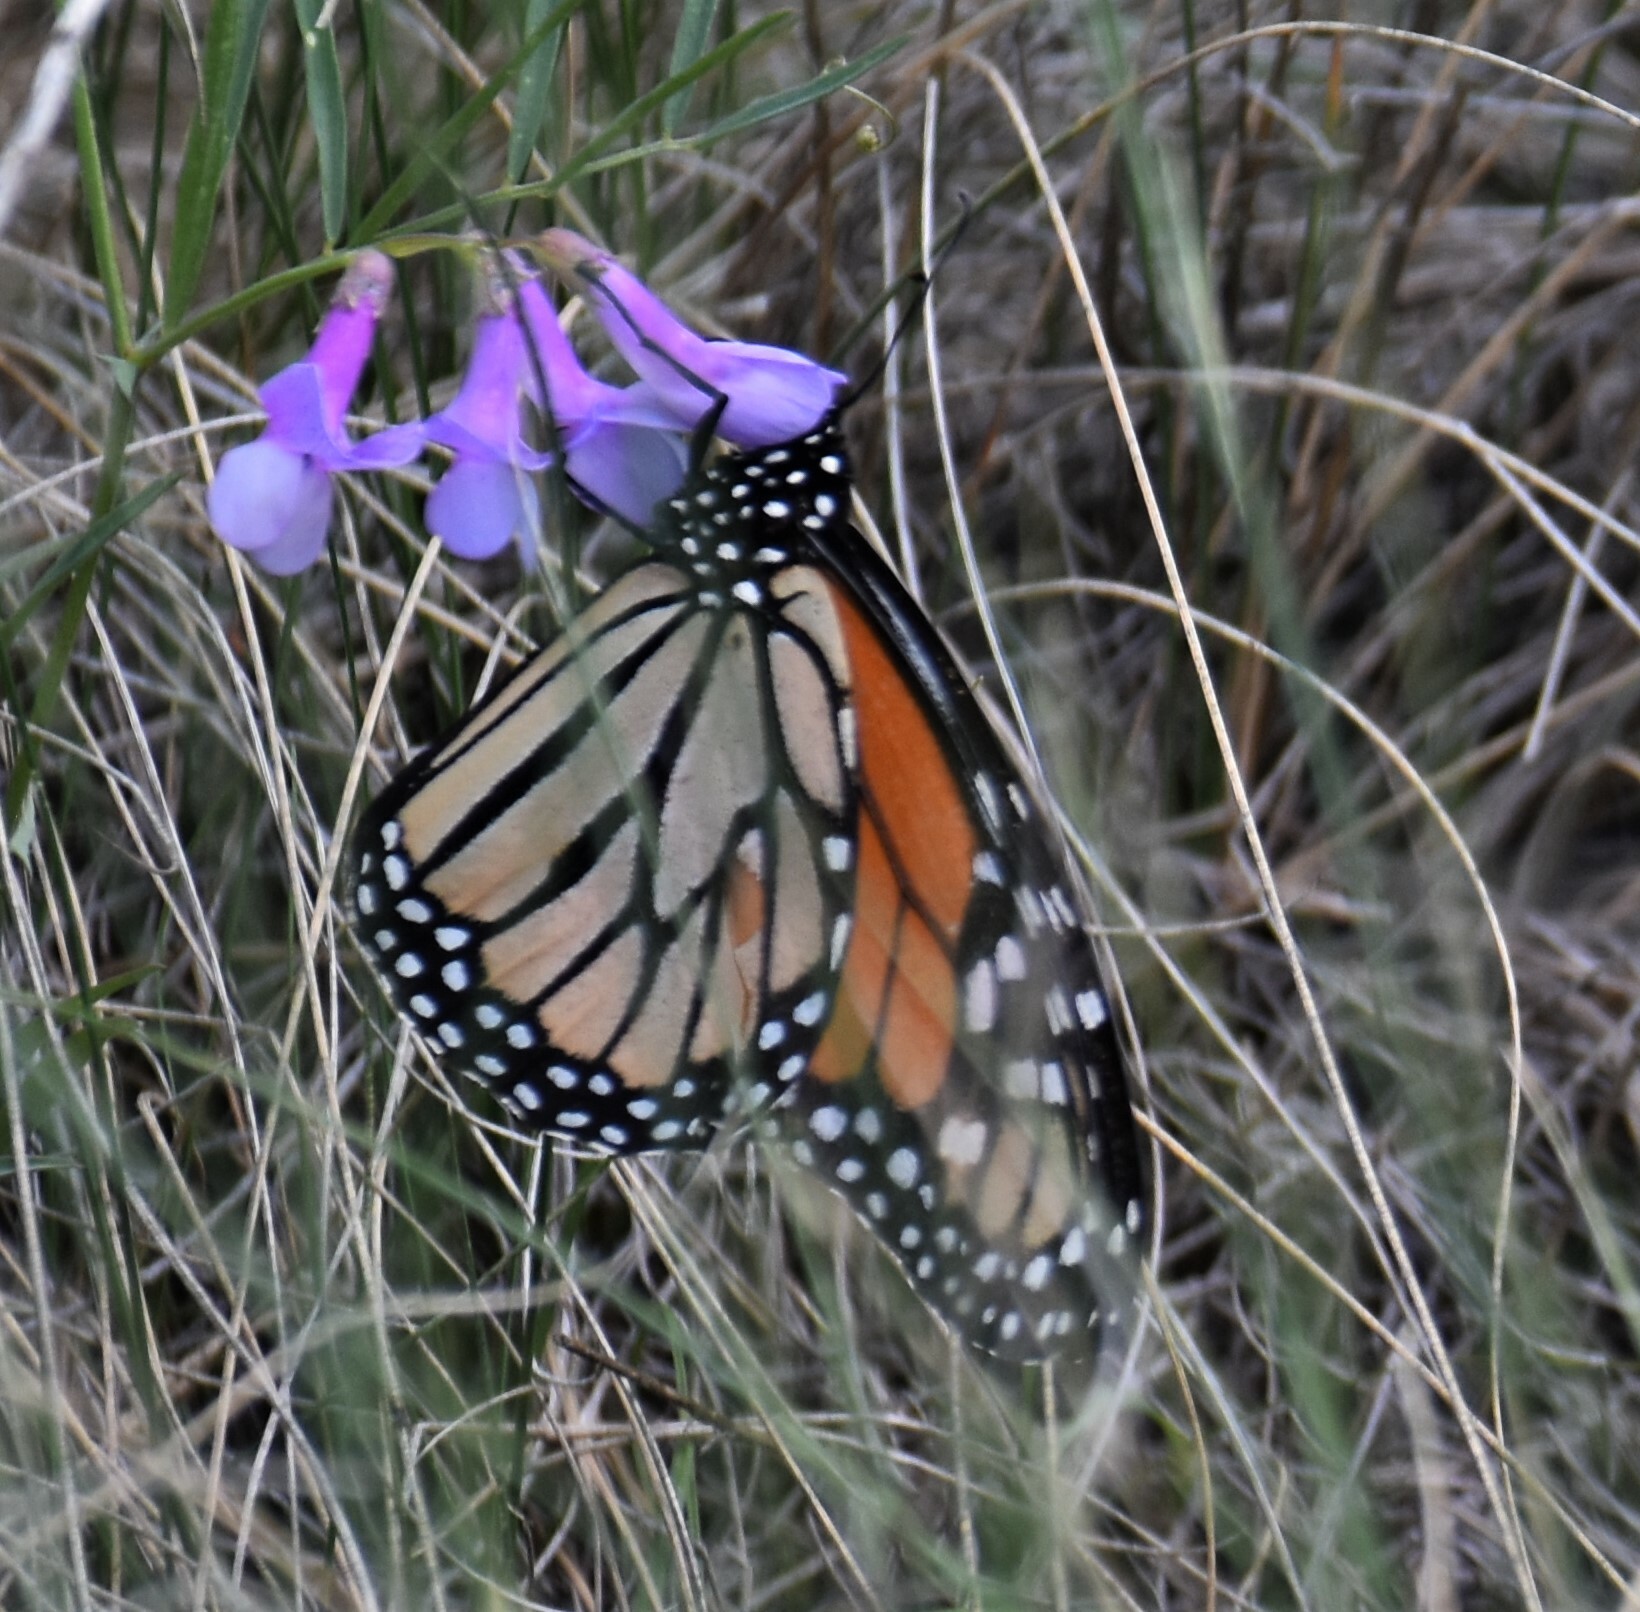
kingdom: Animalia
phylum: Arthropoda
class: Insecta
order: Lepidoptera
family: Nymphalidae
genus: Danaus
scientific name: Danaus plexippus
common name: Monarch
